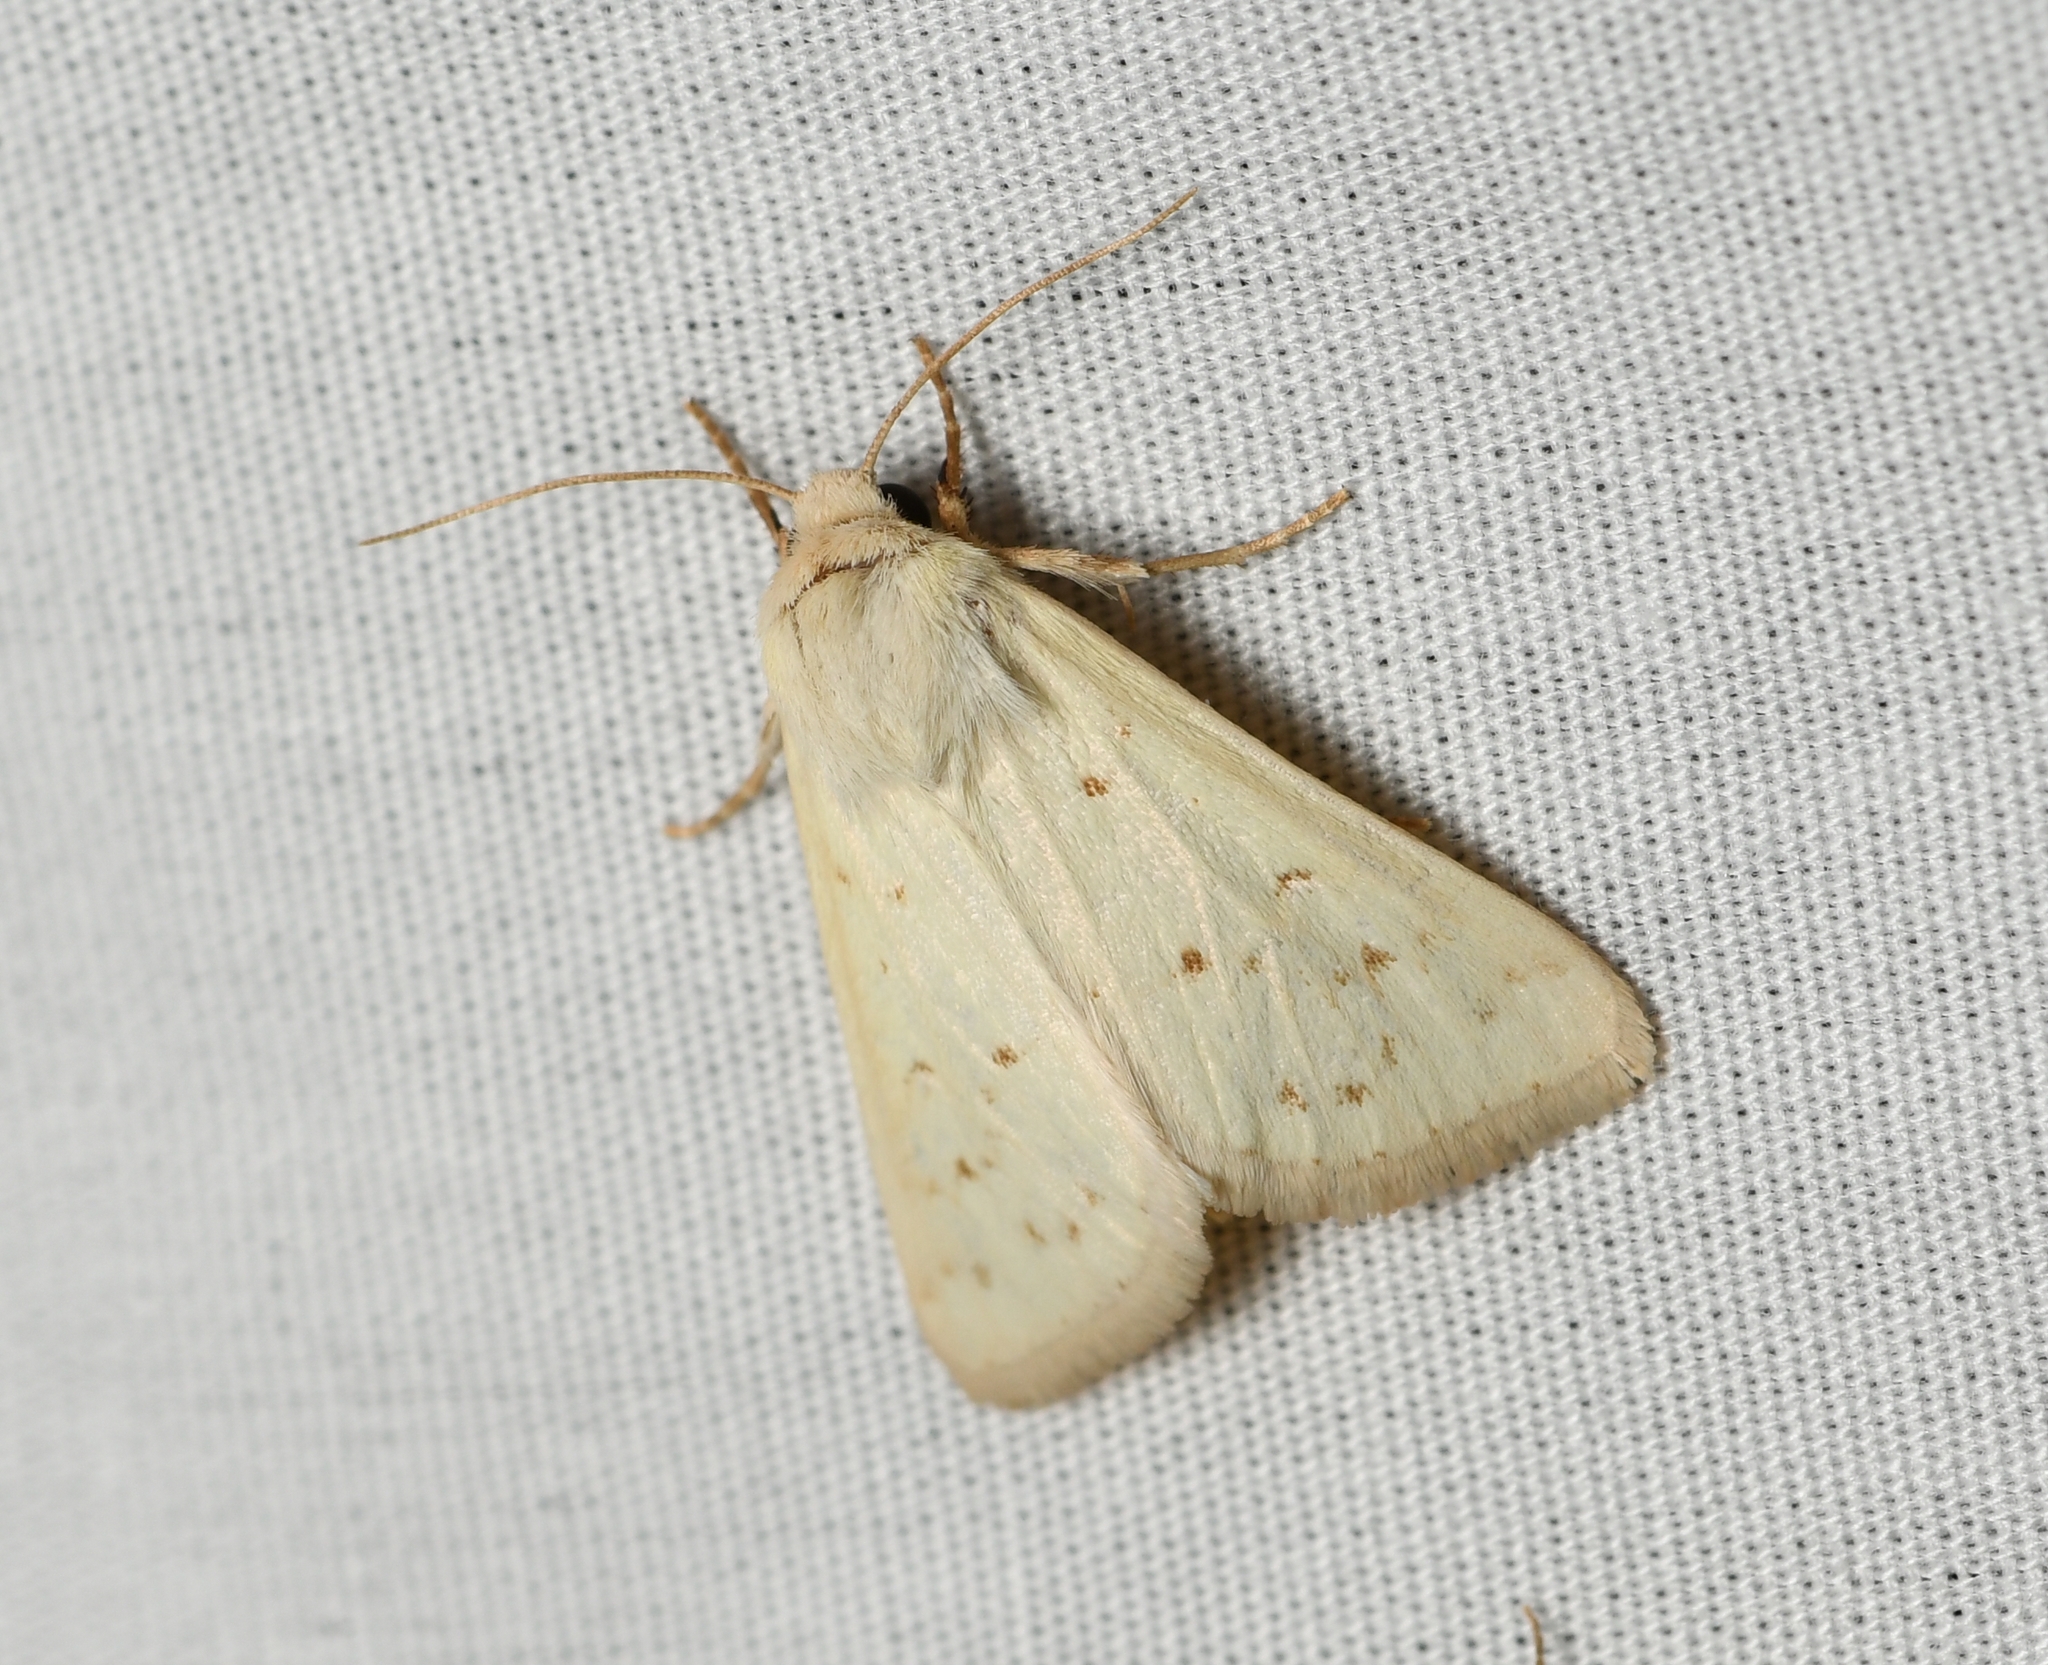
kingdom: Animalia
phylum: Arthropoda
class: Insecta
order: Lepidoptera
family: Noctuidae
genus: Schinia
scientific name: Schinia luxa
